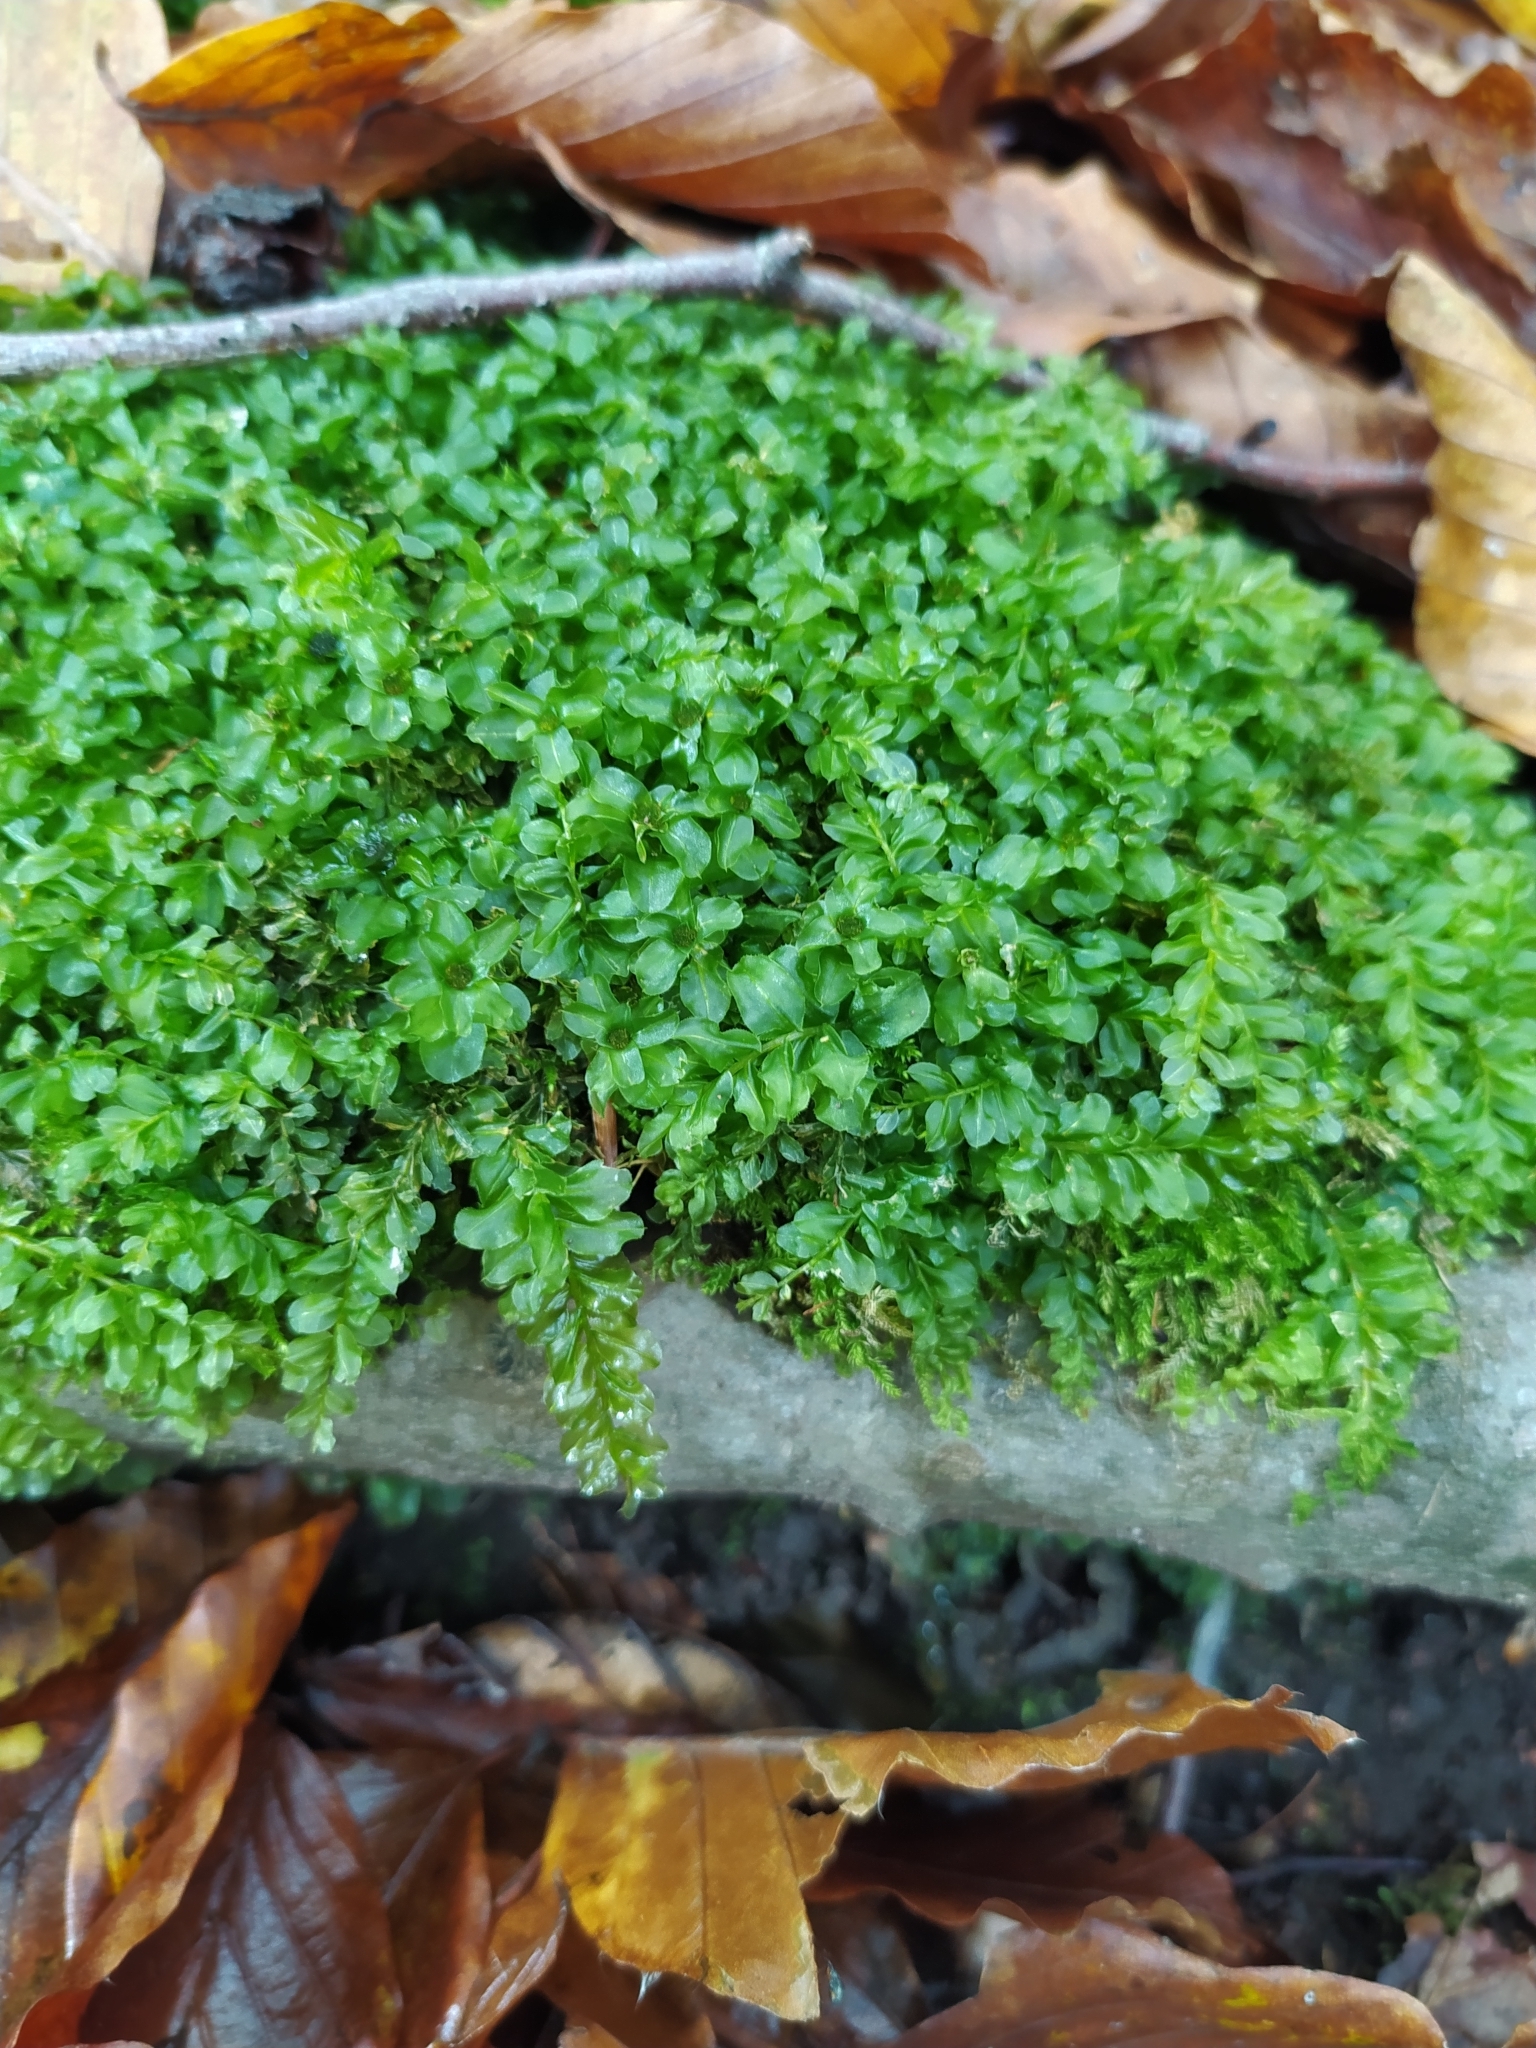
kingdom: Plantae
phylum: Bryophyta
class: Bryopsida
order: Bryales
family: Mniaceae
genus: Plagiomnium
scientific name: Plagiomnium affine
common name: Many-fruited thyme-moss
